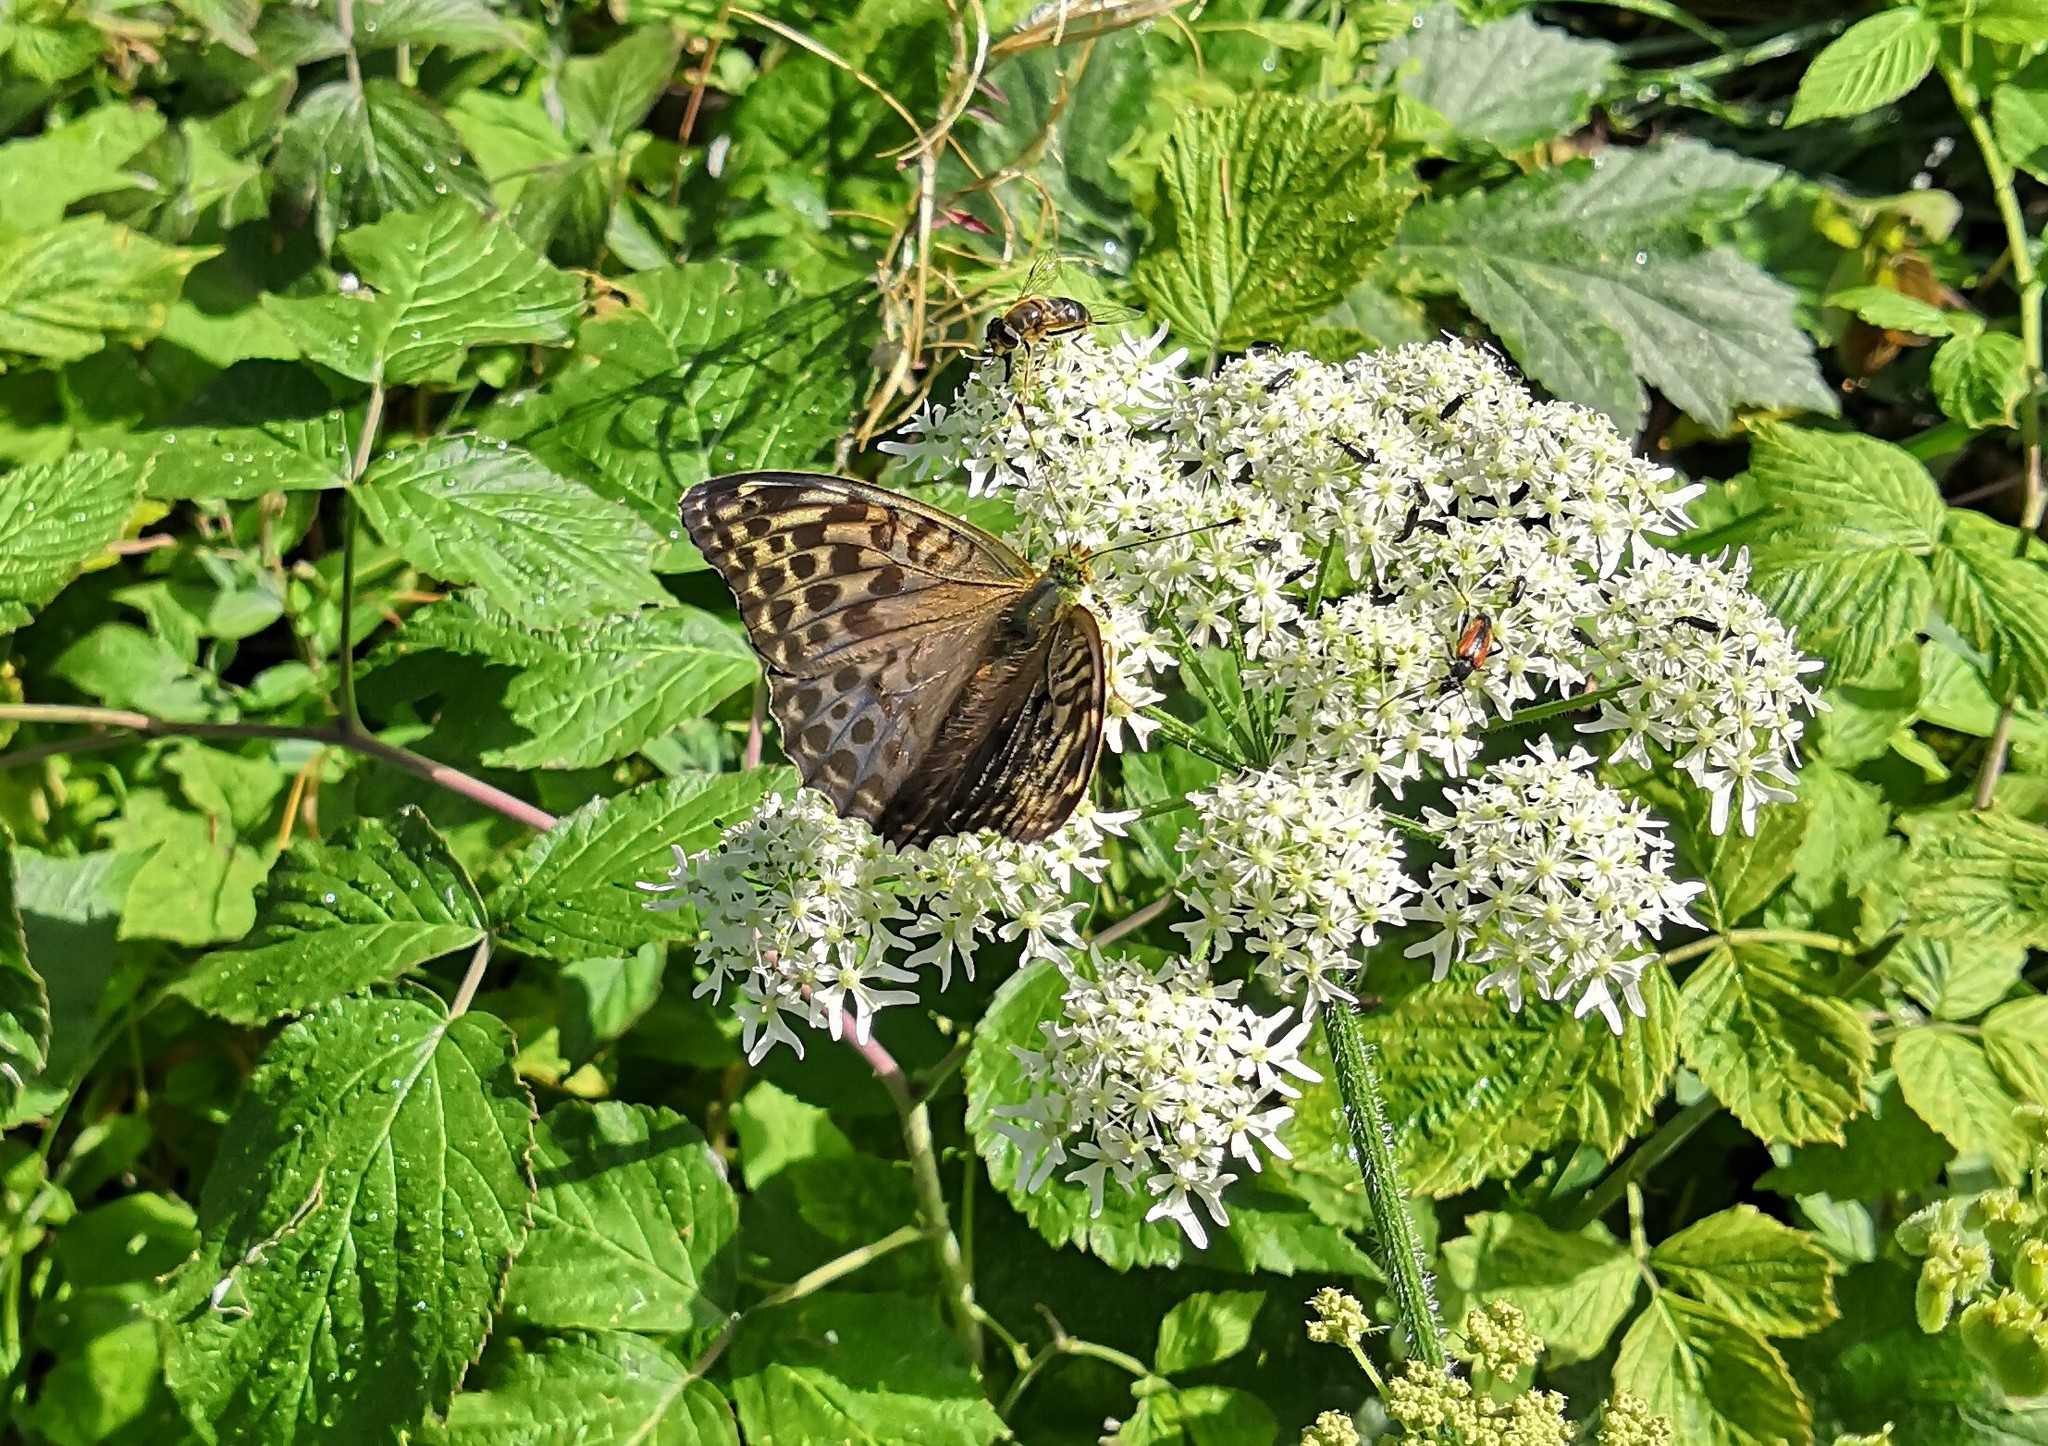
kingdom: Animalia
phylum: Arthropoda
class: Insecta
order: Lepidoptera
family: Nymphalidae
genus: Argynnis
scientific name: Argynnis paphia
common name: Silver-washed fritillary
